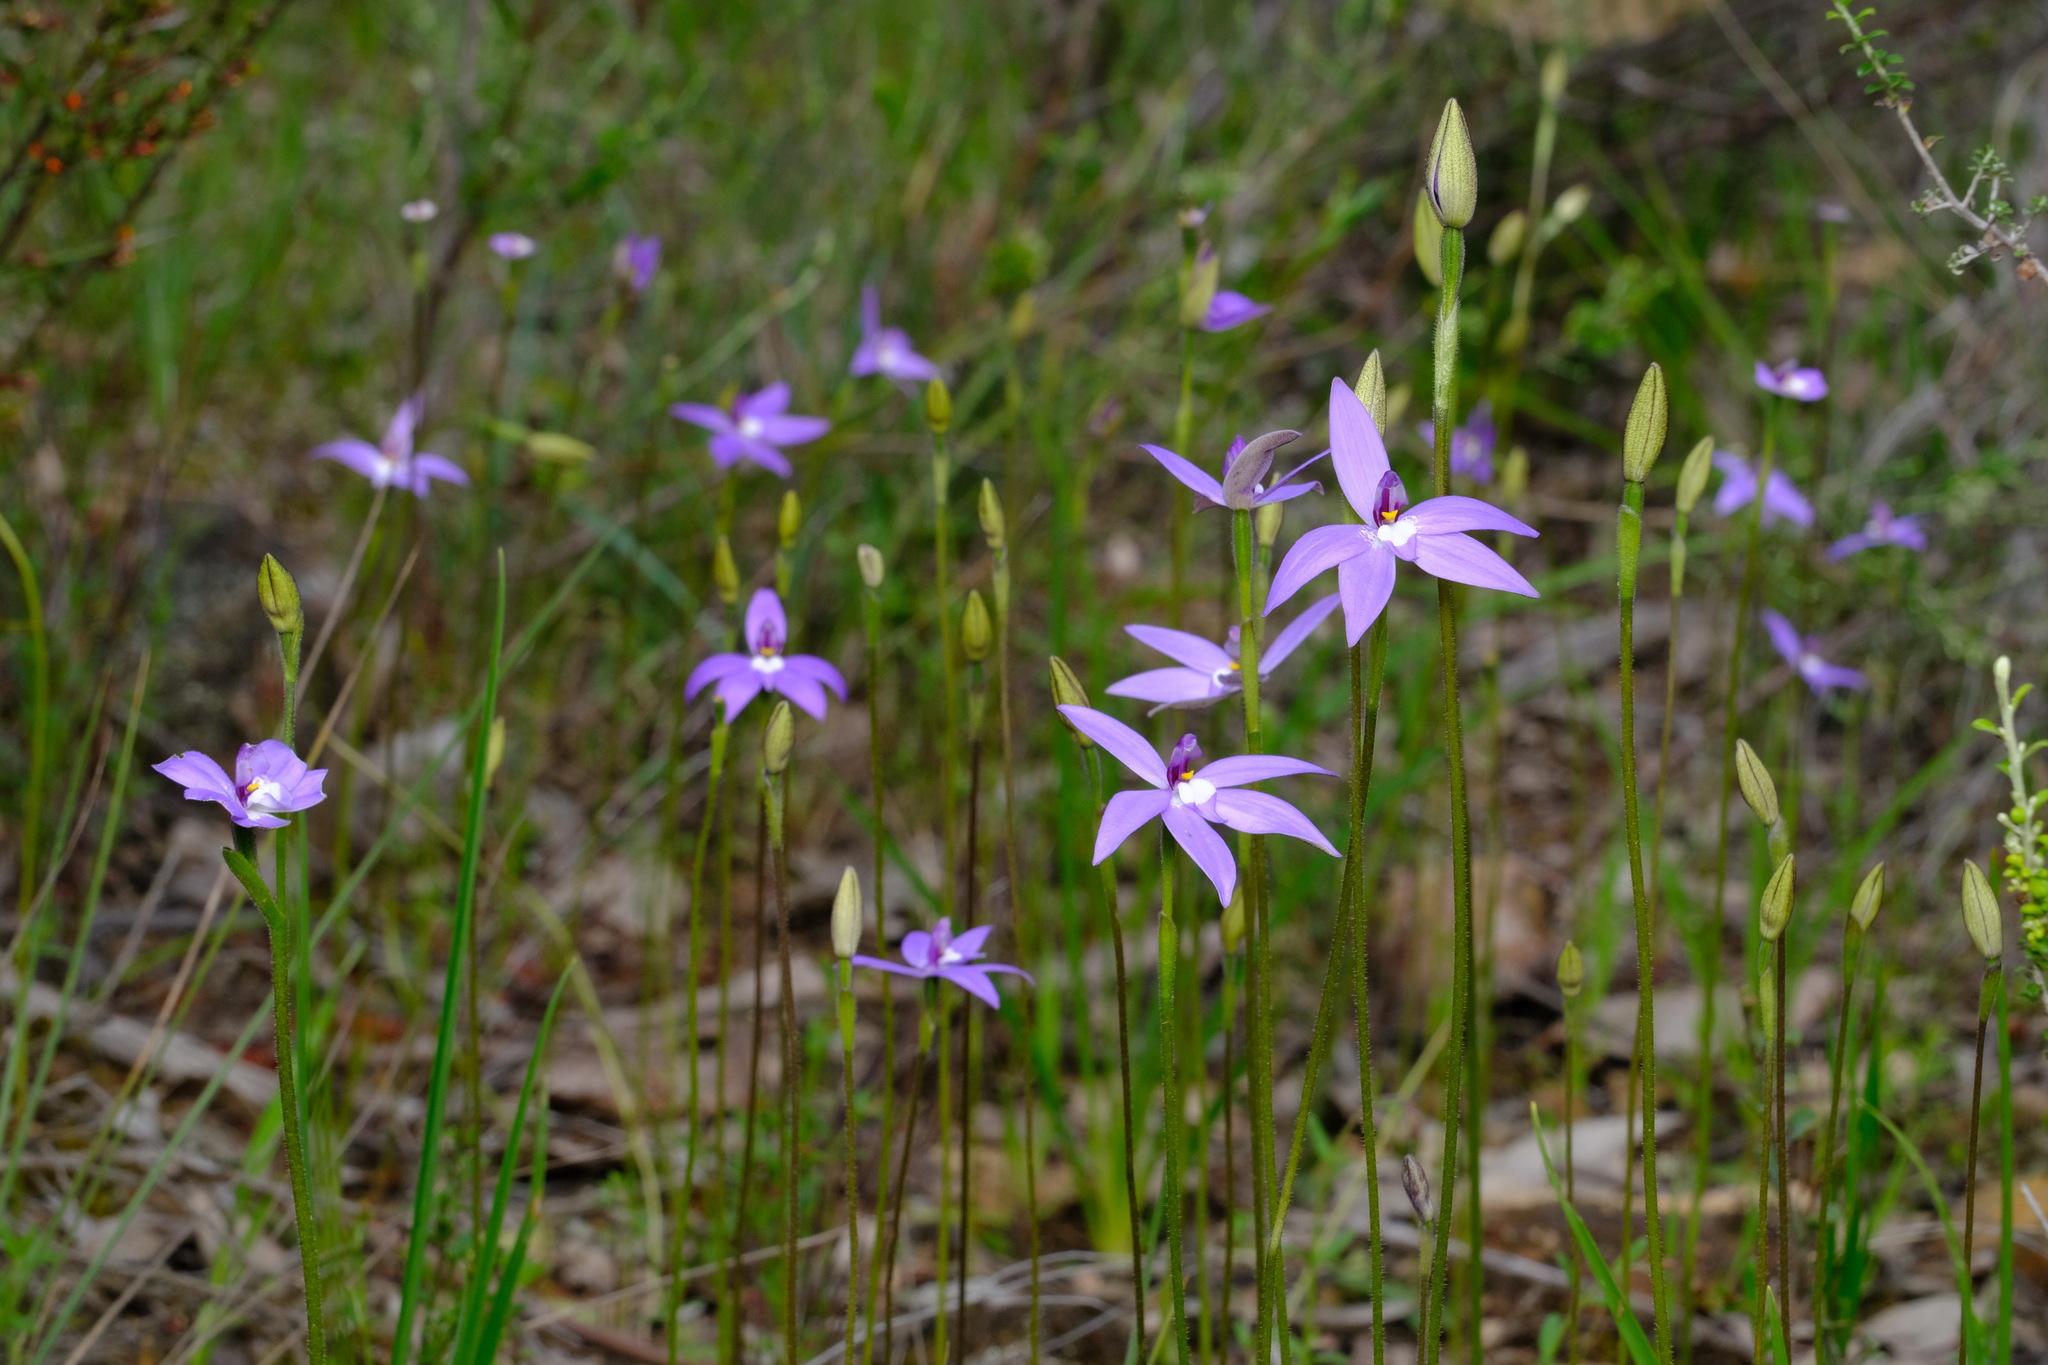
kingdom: Plantae
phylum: Tracheophyta
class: Liliopsida
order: Asparagales
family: Orchidaceae
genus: Caladenia
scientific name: Caladenia major
